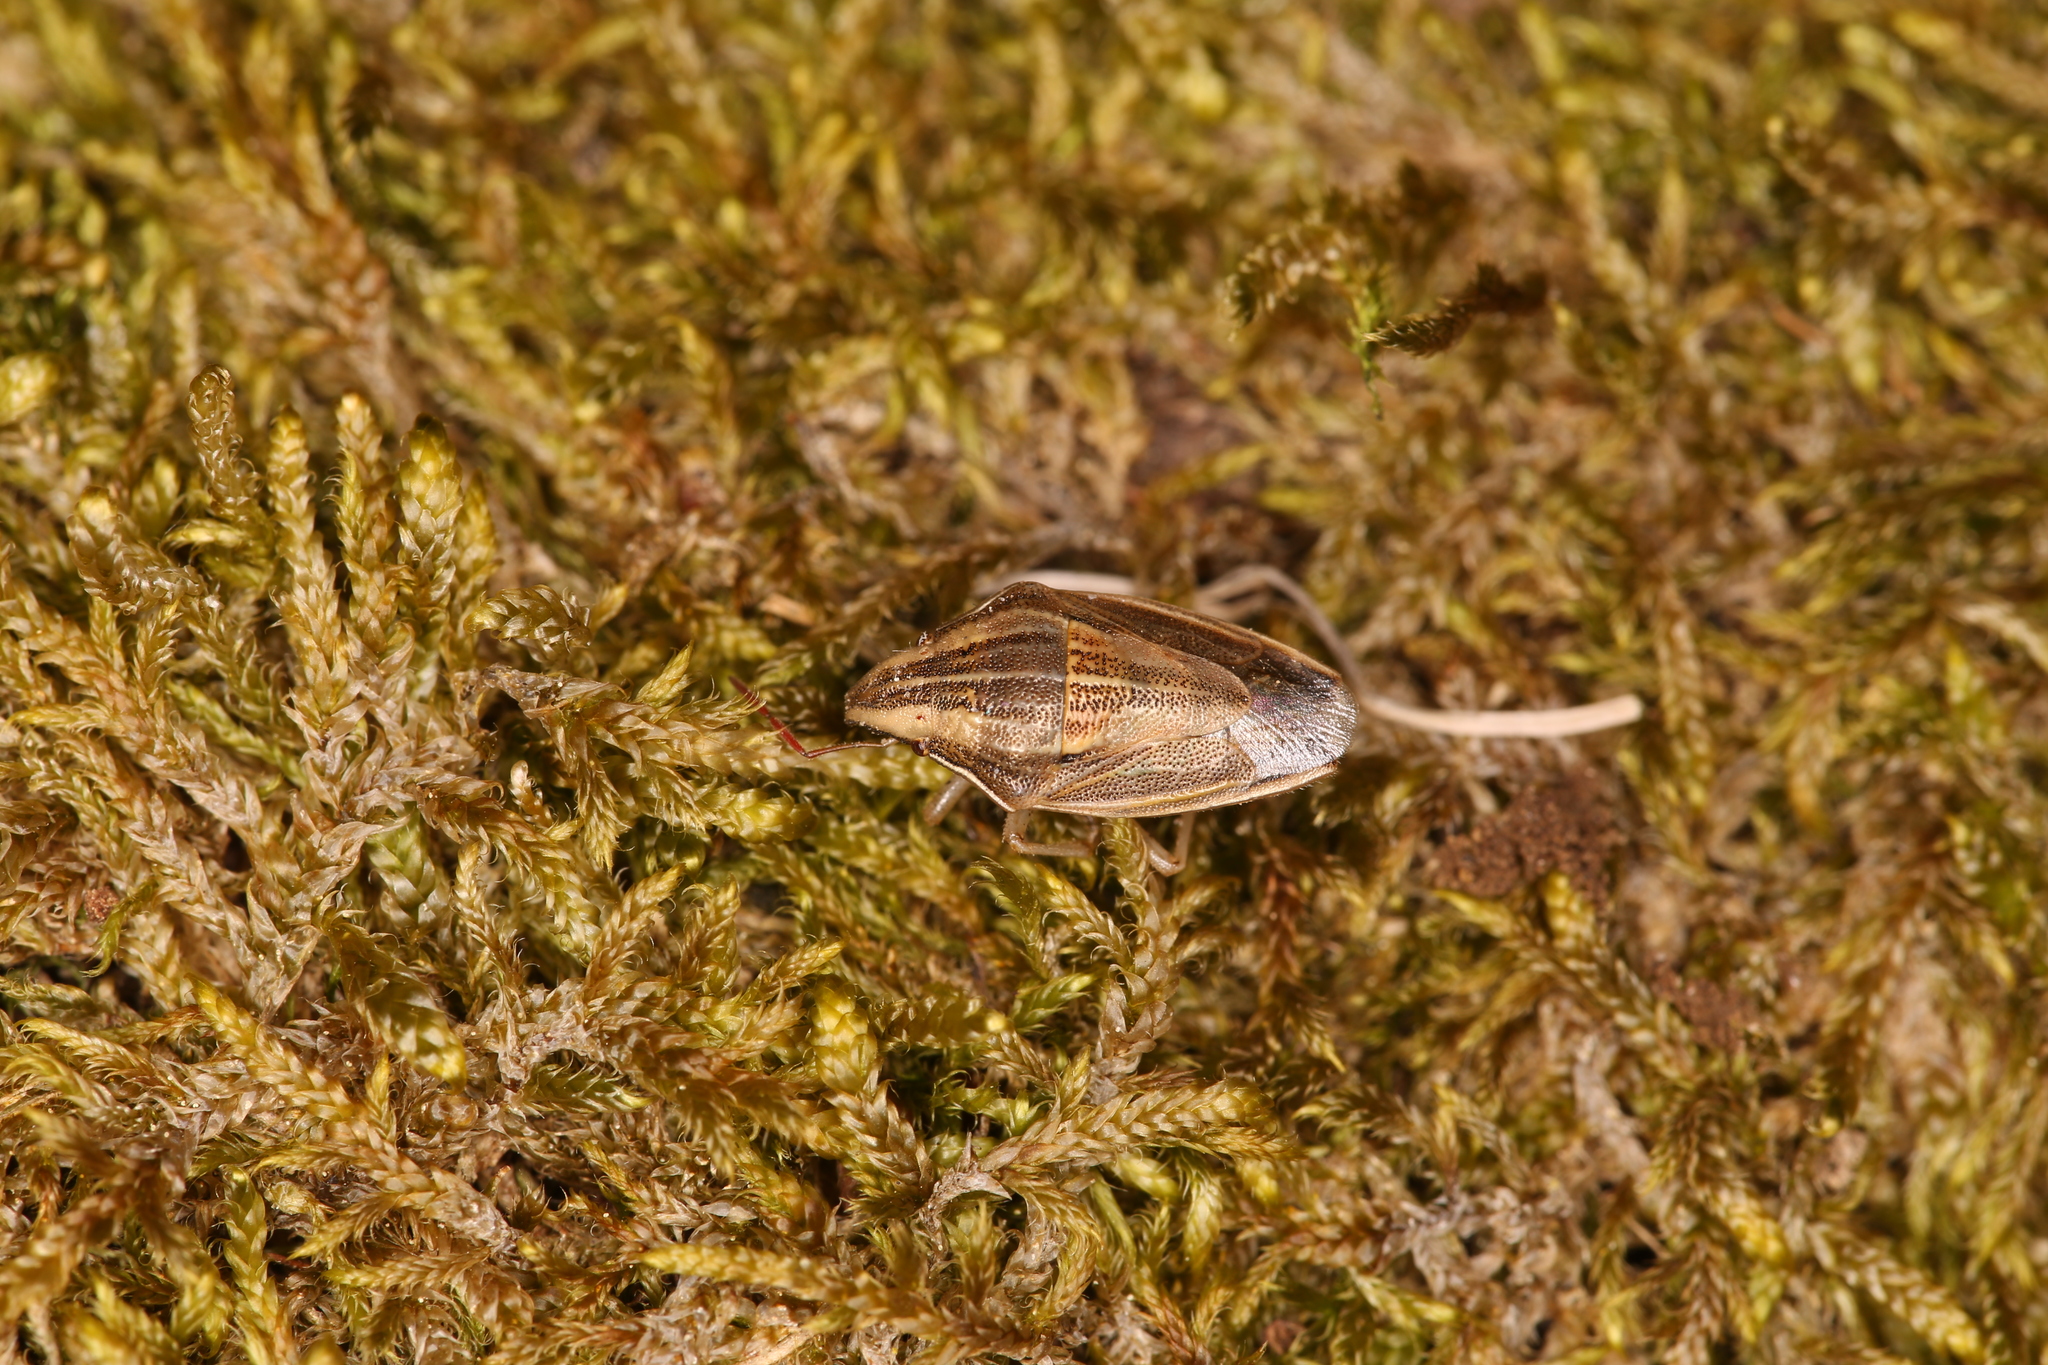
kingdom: Animalia
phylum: Arthropoda
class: Insecta
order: Hemiptera
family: Pentatomidae
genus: Aelia
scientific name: Aelia acuminata
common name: Bishop's mitre
